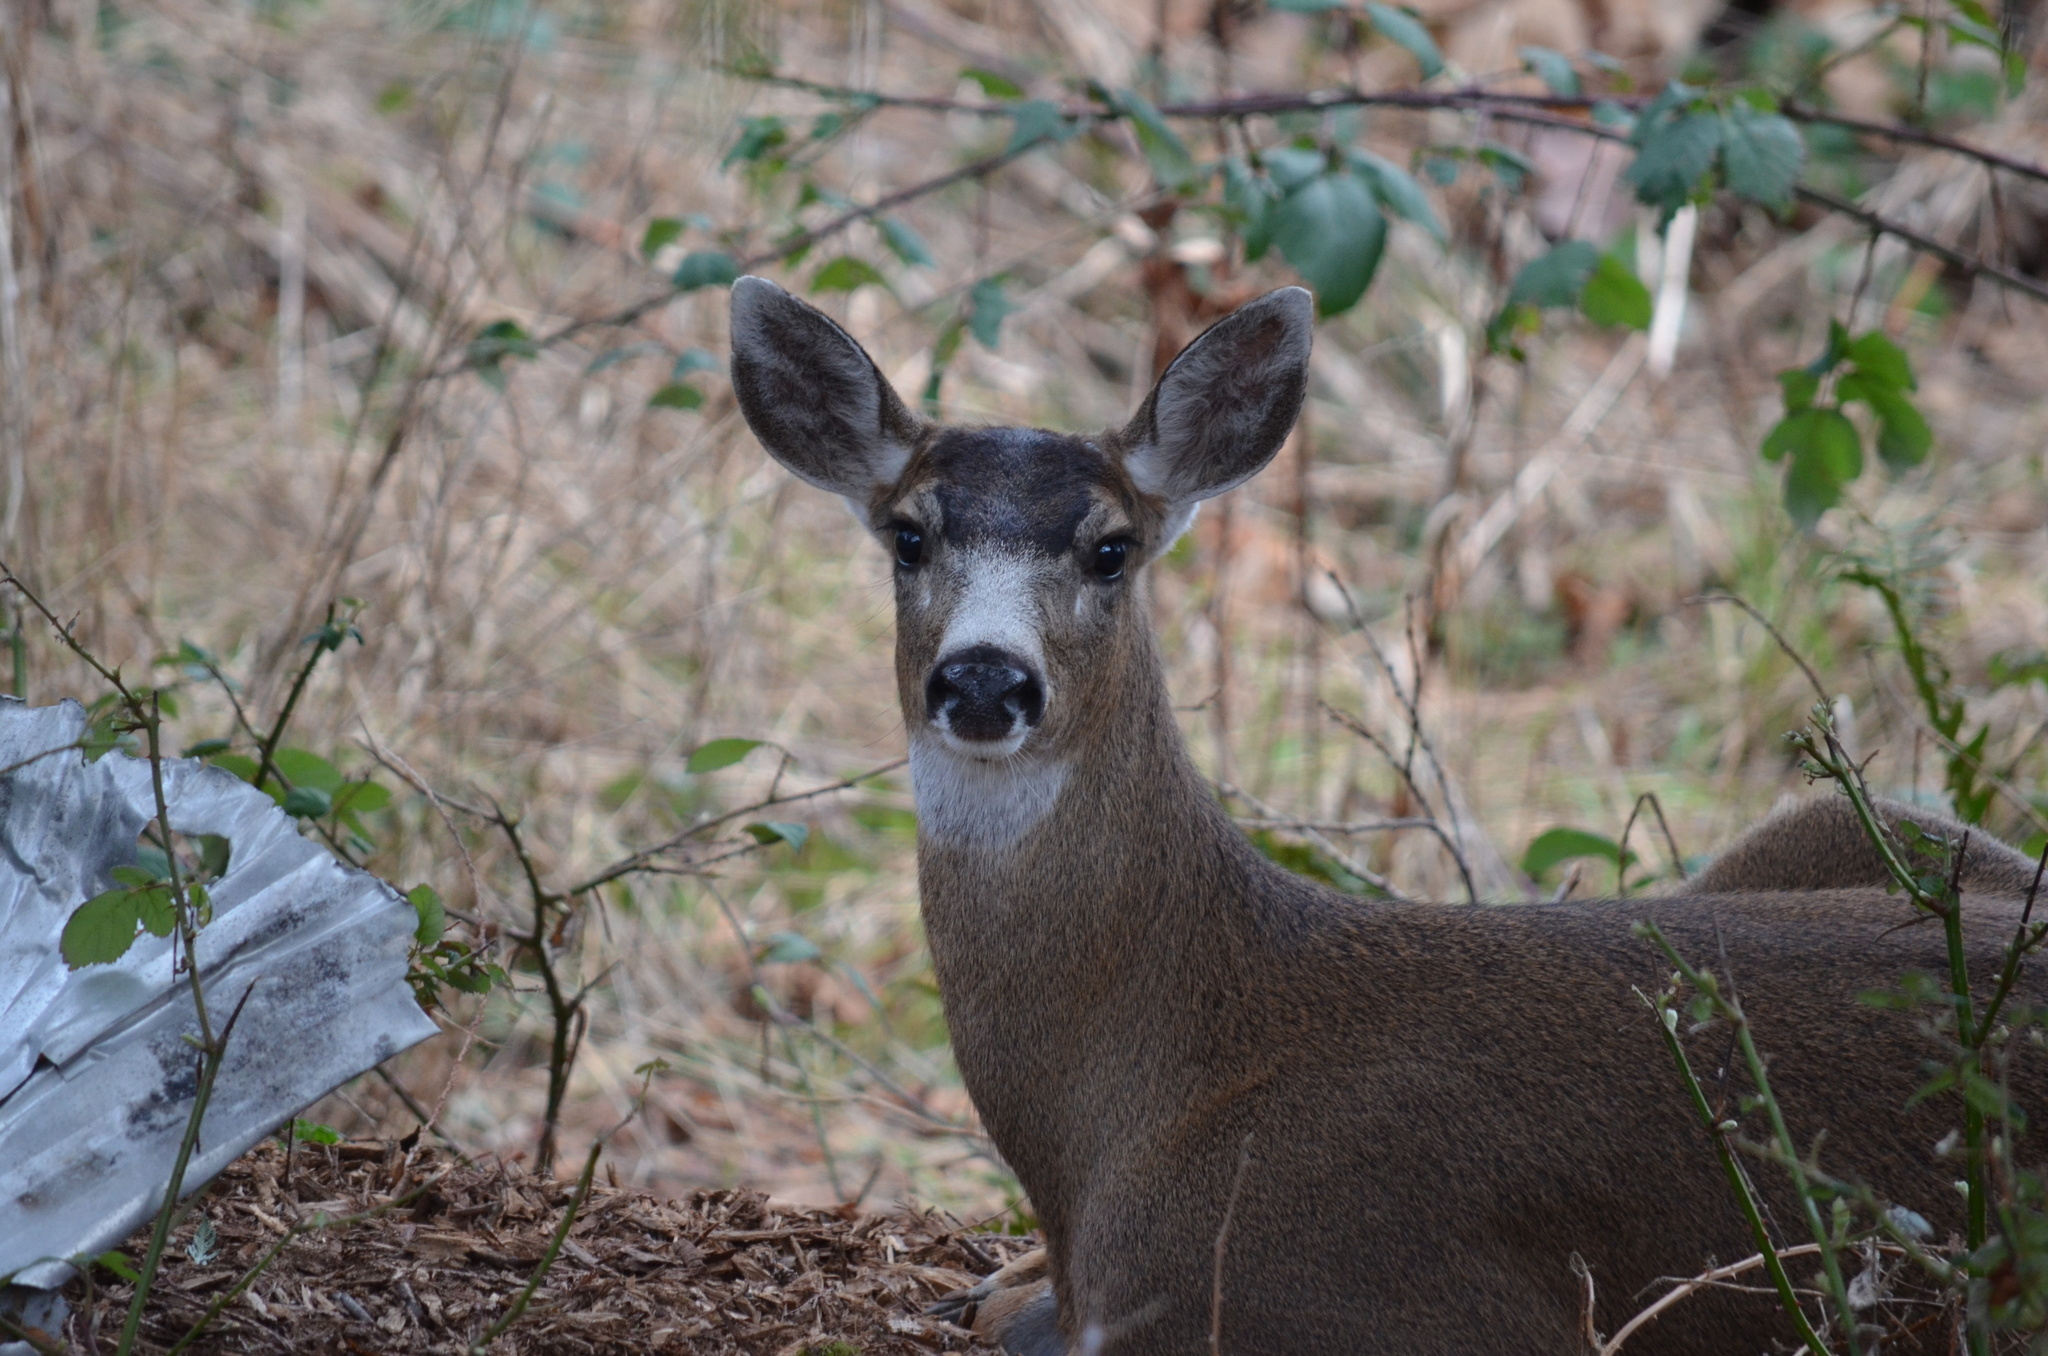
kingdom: Animalia
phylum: Chordata
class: Mammalia
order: Artiodactyla
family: Cervidae
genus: Odocoileus
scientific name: Odocoileus hemionus
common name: Mule deer
